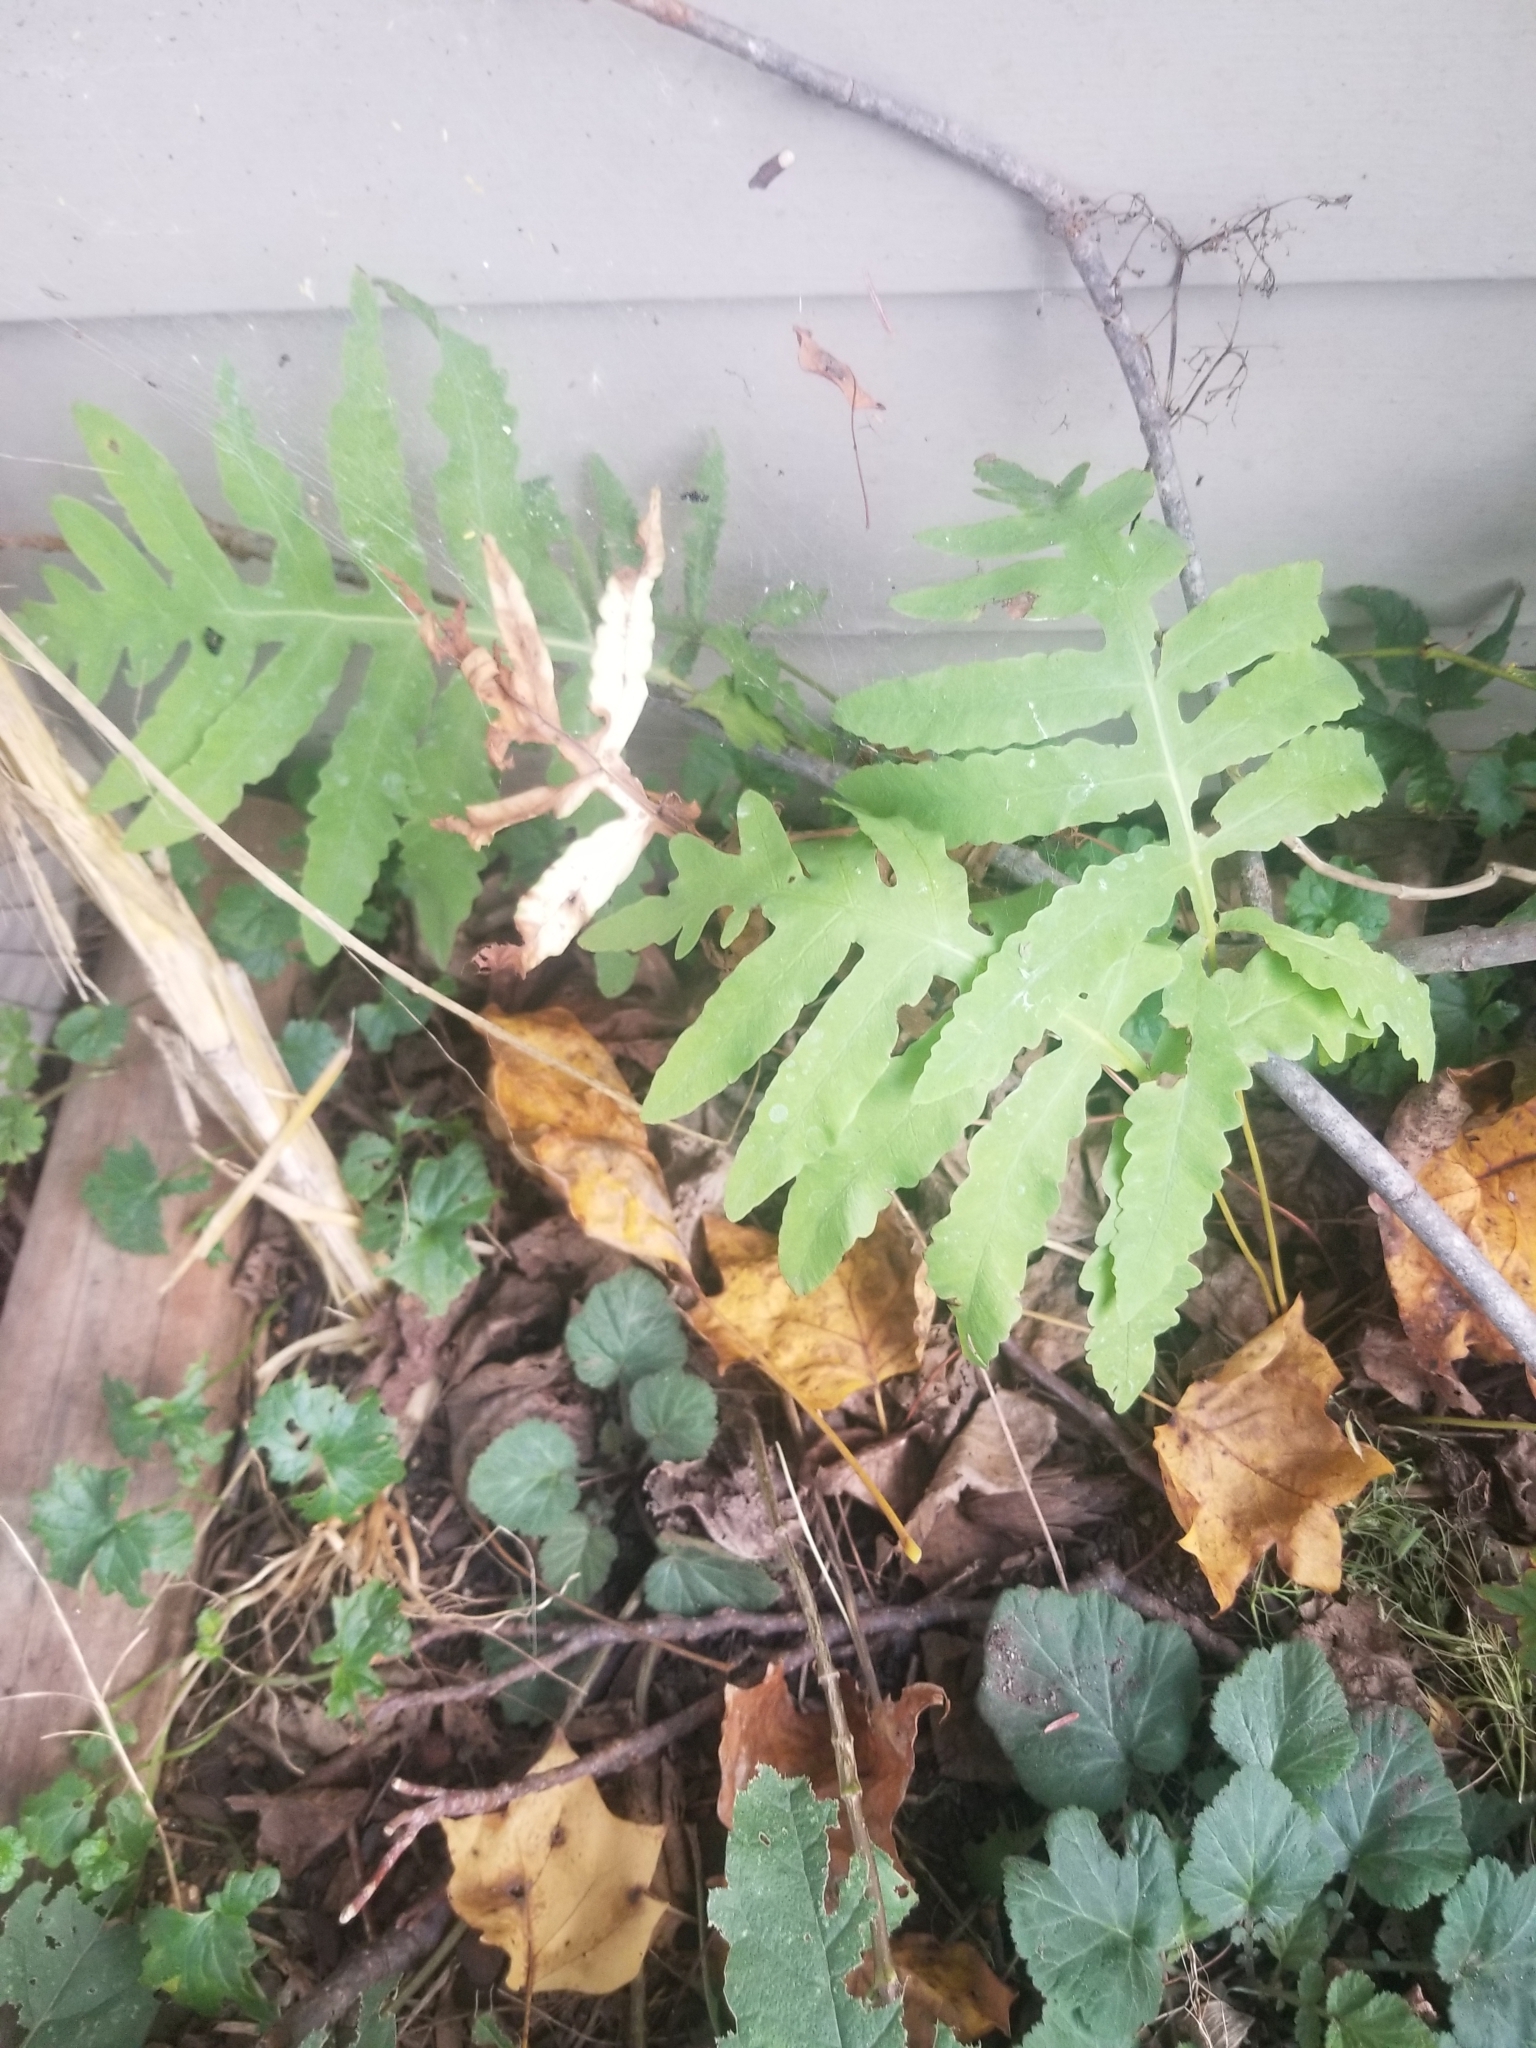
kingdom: Plantae
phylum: Tracheophyta
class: Polypodiopsida
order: Polypodiales
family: Onocleaceae
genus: Onoclea
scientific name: Onoclea sensibilis
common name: Sensitive fern
